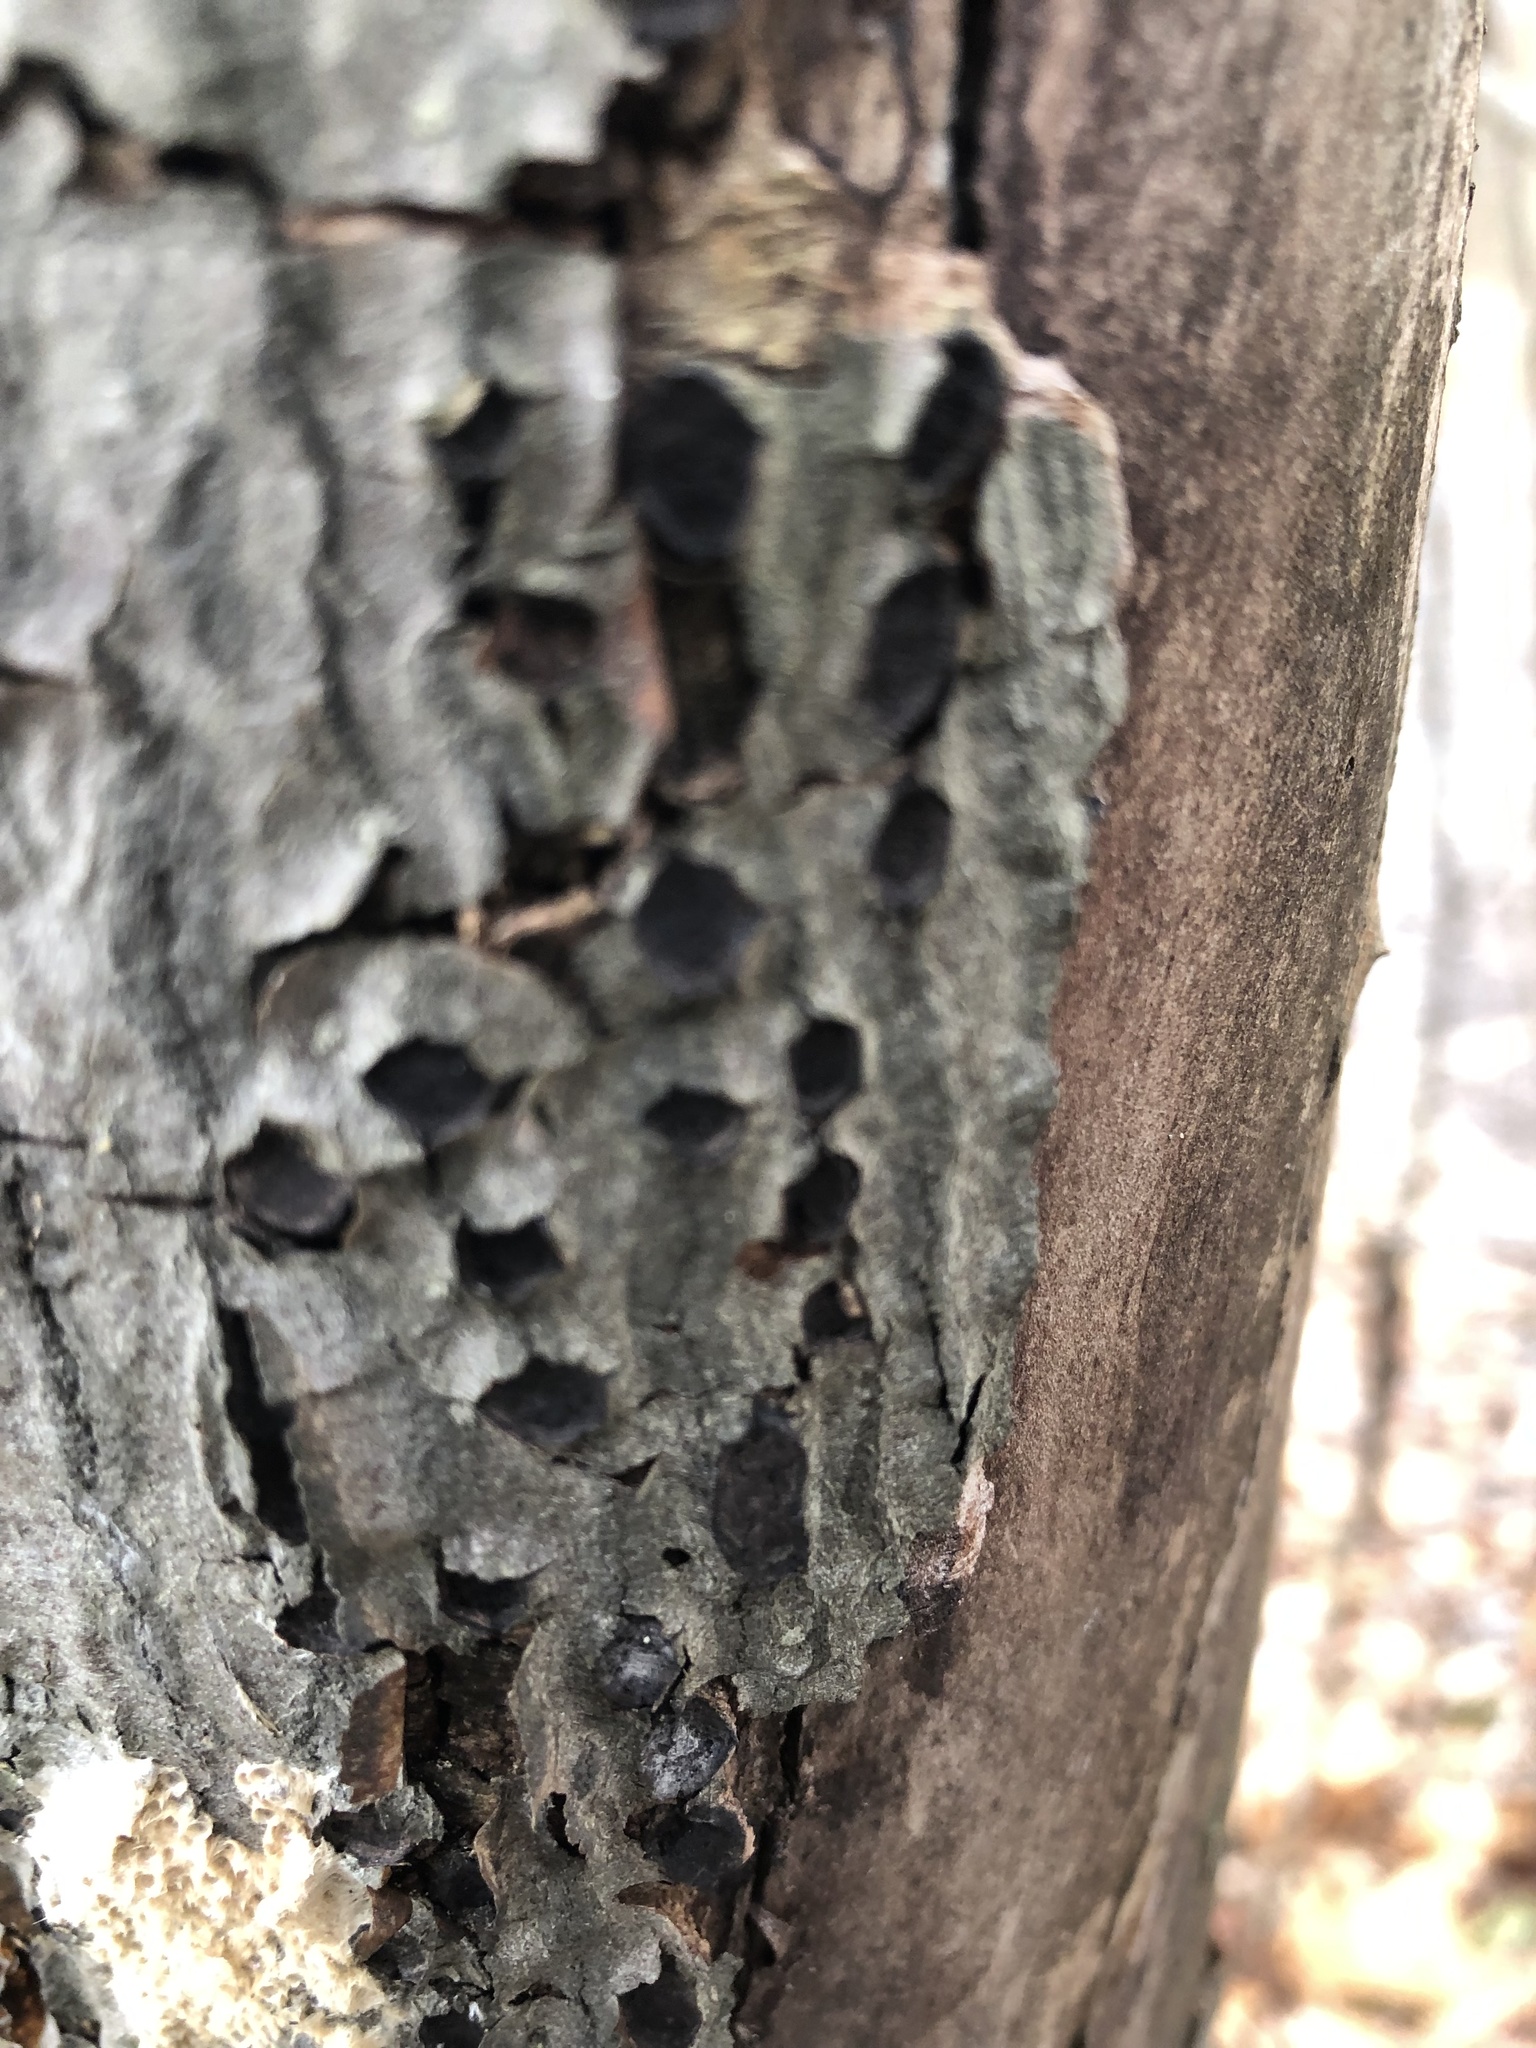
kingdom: Animalia
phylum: Chordata
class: Aves
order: Piciformes
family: Picidae
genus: Sphyrapicus
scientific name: Sphyrapicus varius
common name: Yellow-bellied sapsucker
